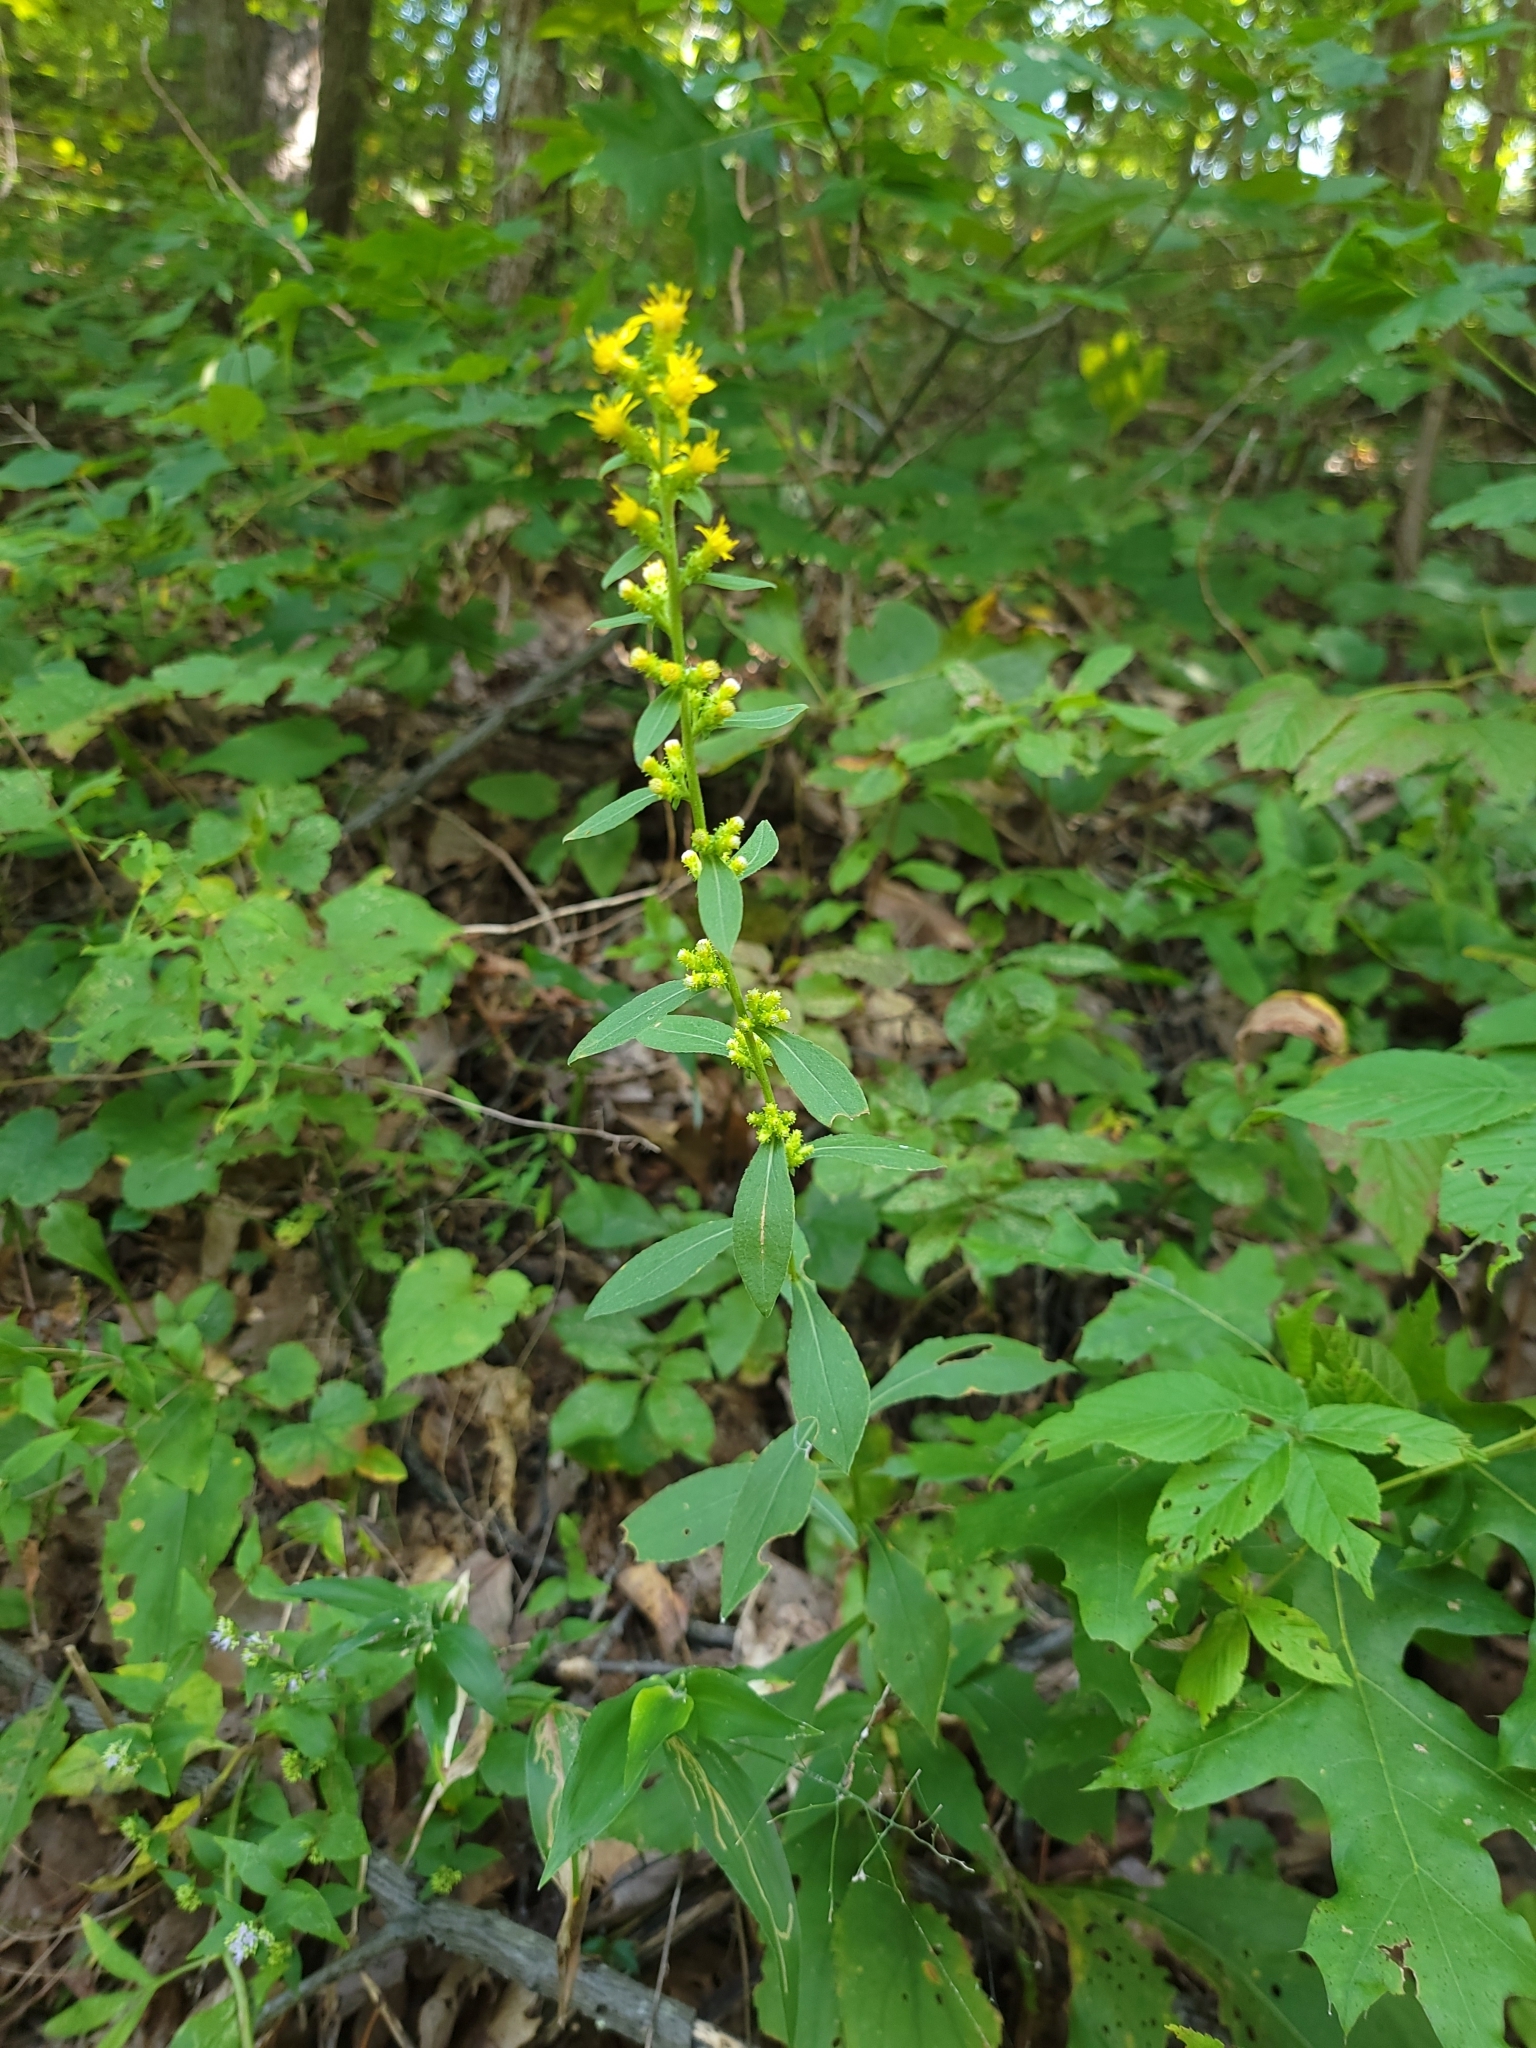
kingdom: Plantae
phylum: Tracheophyta
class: Magnoliopsida
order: Asterales
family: Asteraceae
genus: Solidago
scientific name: Solidago squarrosa
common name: Stout goldenrod
